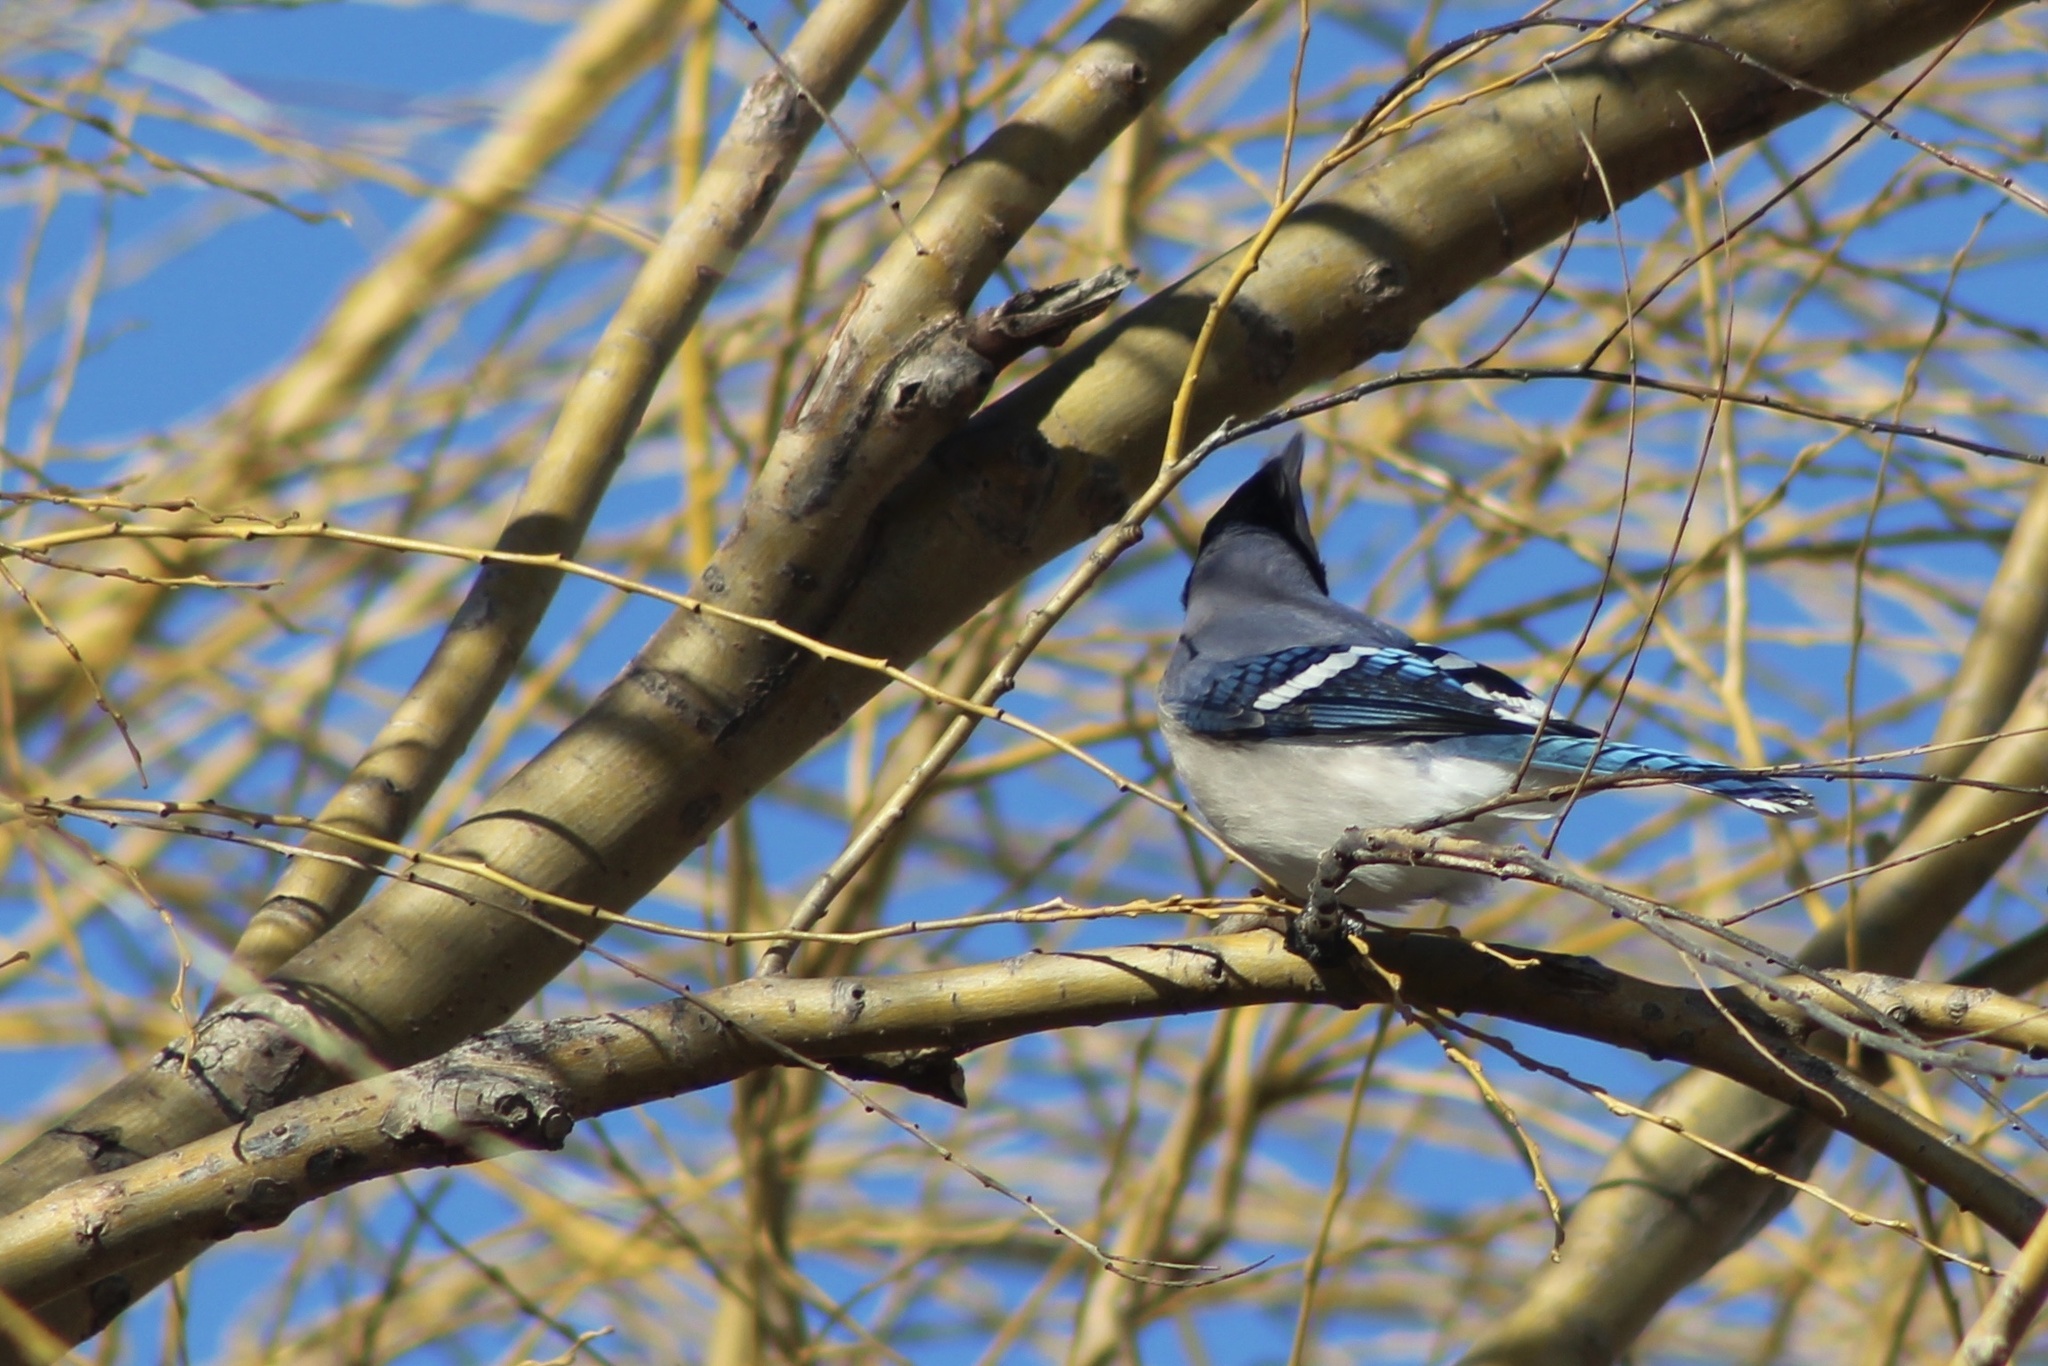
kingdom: Animalia
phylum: Chordata
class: Aves
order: Passeriformes
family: Corvidae
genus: Cyanocitta
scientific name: Cyanocitta cristata
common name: Blue jay
